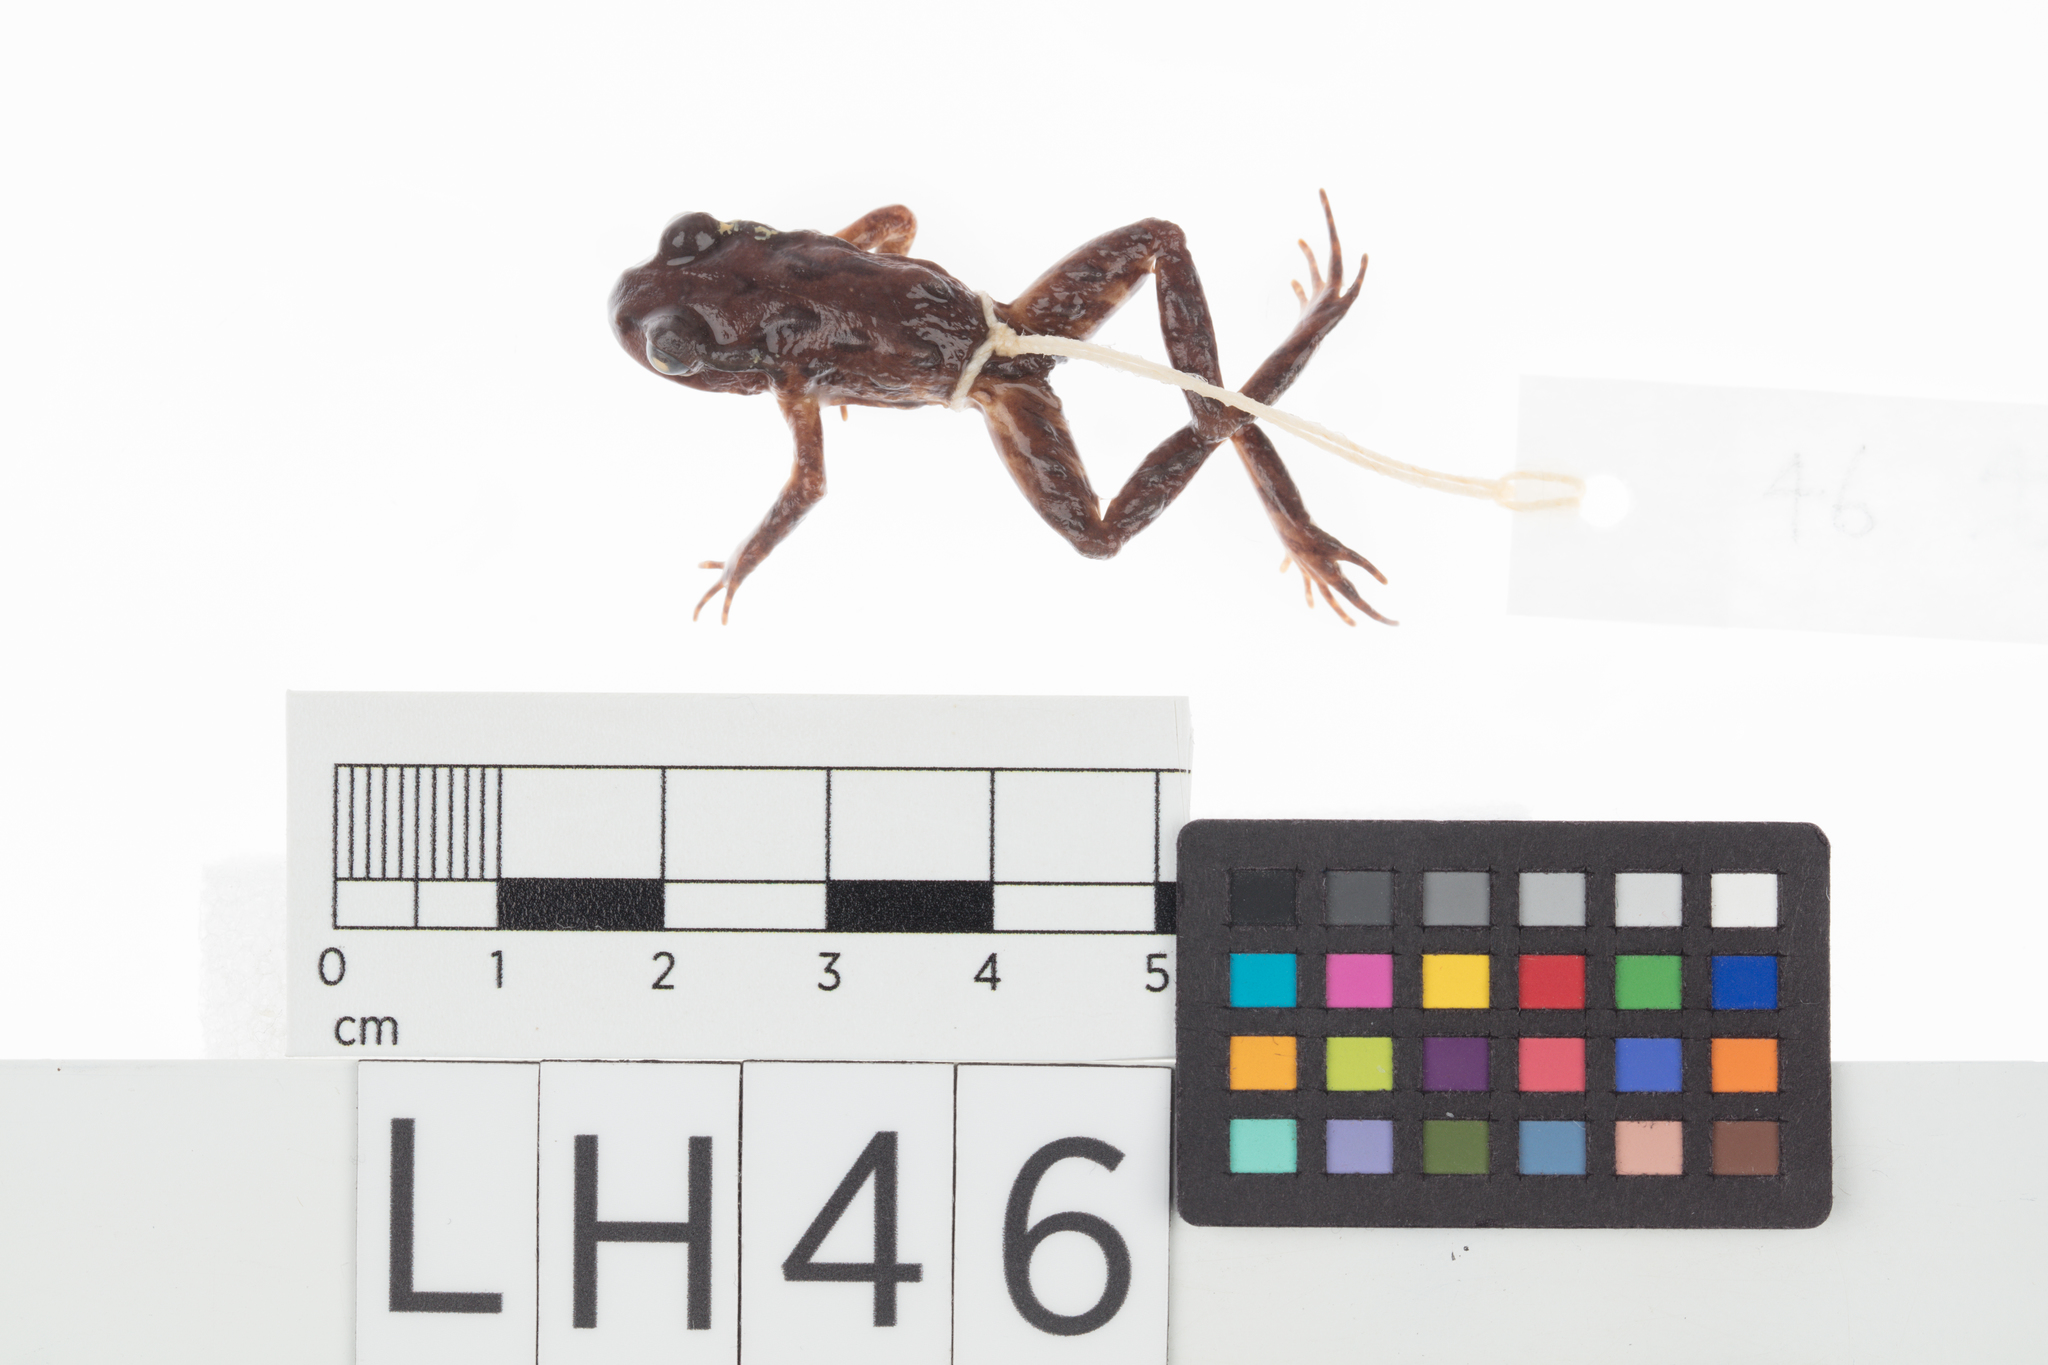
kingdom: Animalia
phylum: Chordata
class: Amphibia
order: Anura
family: Leiopelmatidae
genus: Leiopelma
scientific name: Leiopelma archeyi
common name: Archey's frog
